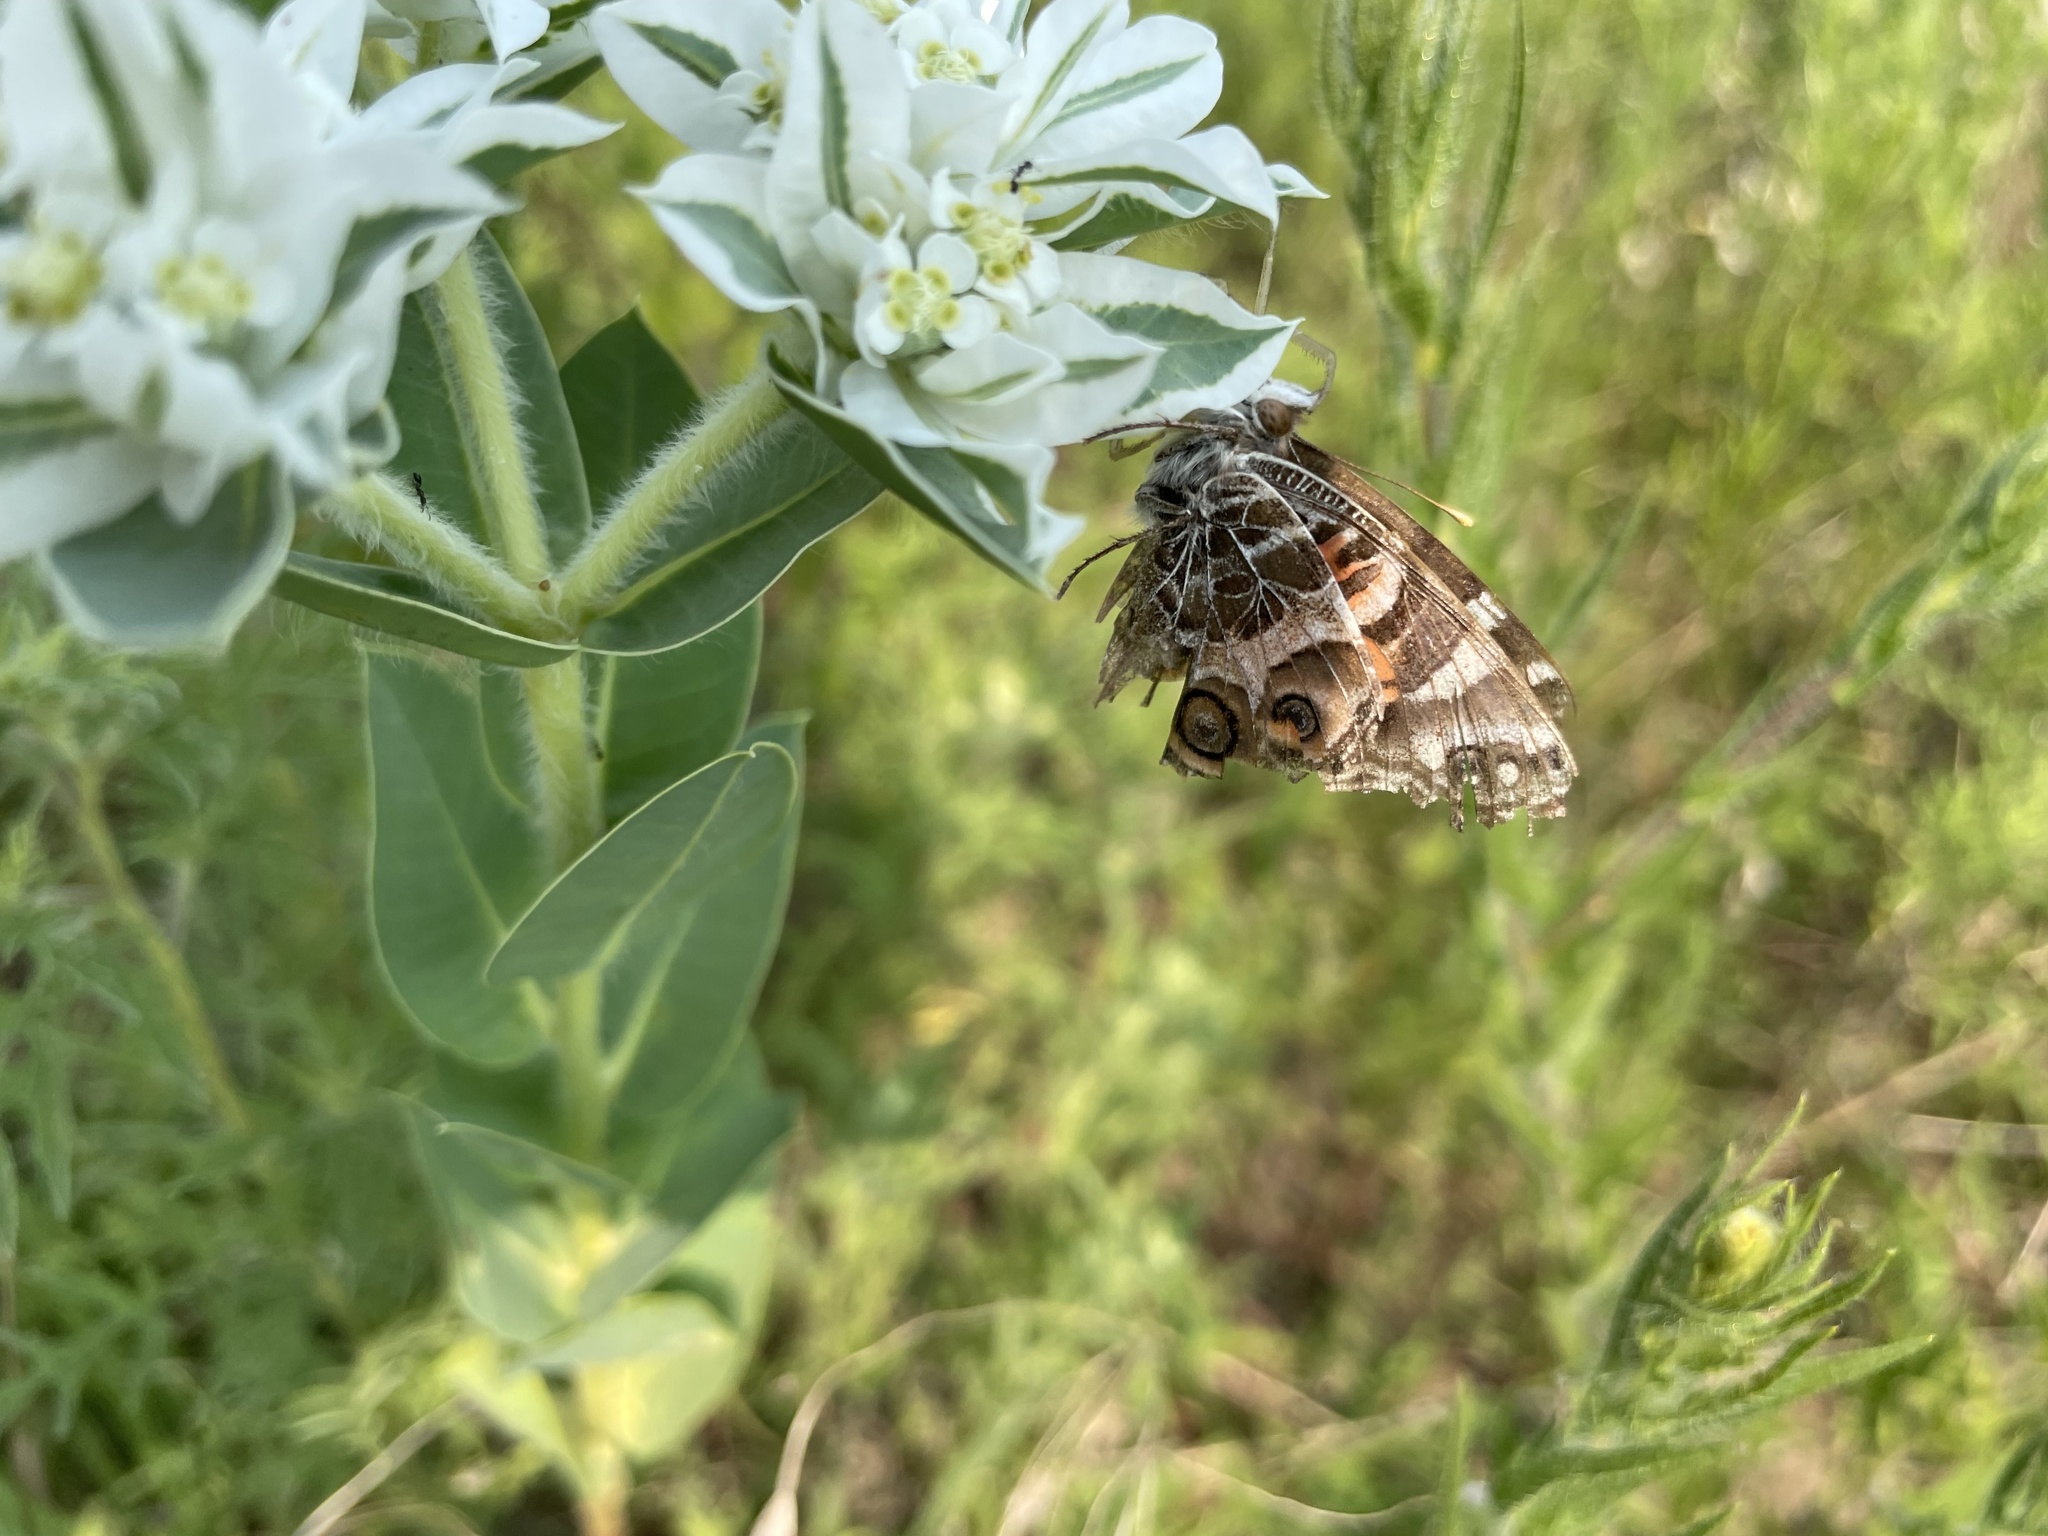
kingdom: Animalia
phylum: Arthropoda
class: Insecta
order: Lepidoptera
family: Nymphalidae
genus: Vanessa
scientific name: Vanessa virginiensis
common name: American lady
